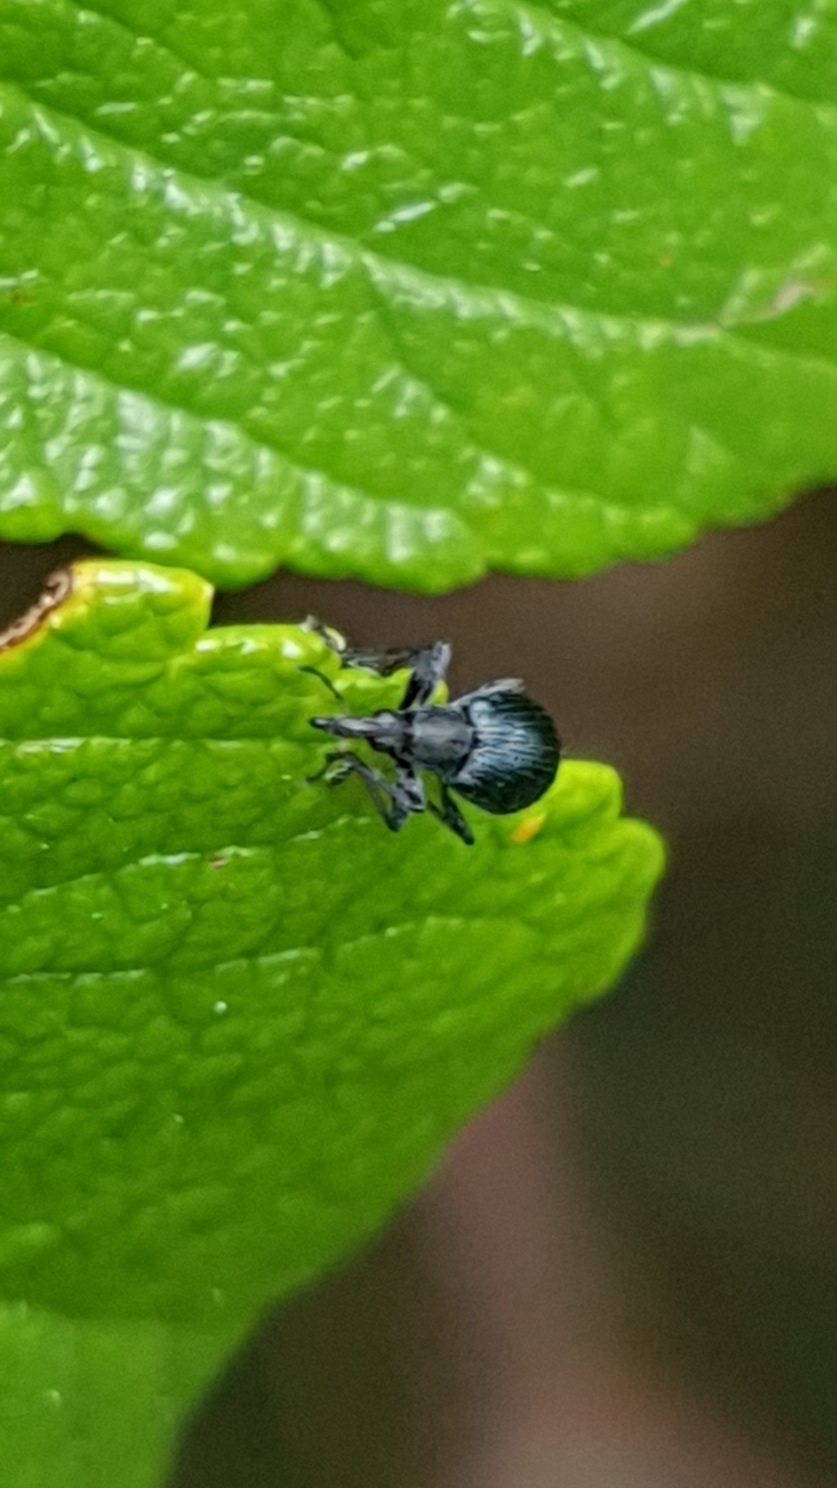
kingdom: Animalia
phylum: Arthropoda
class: Insecta
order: Coleoptera
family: Apionidae
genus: Oxystoma
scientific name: Oxystoma pomonae
